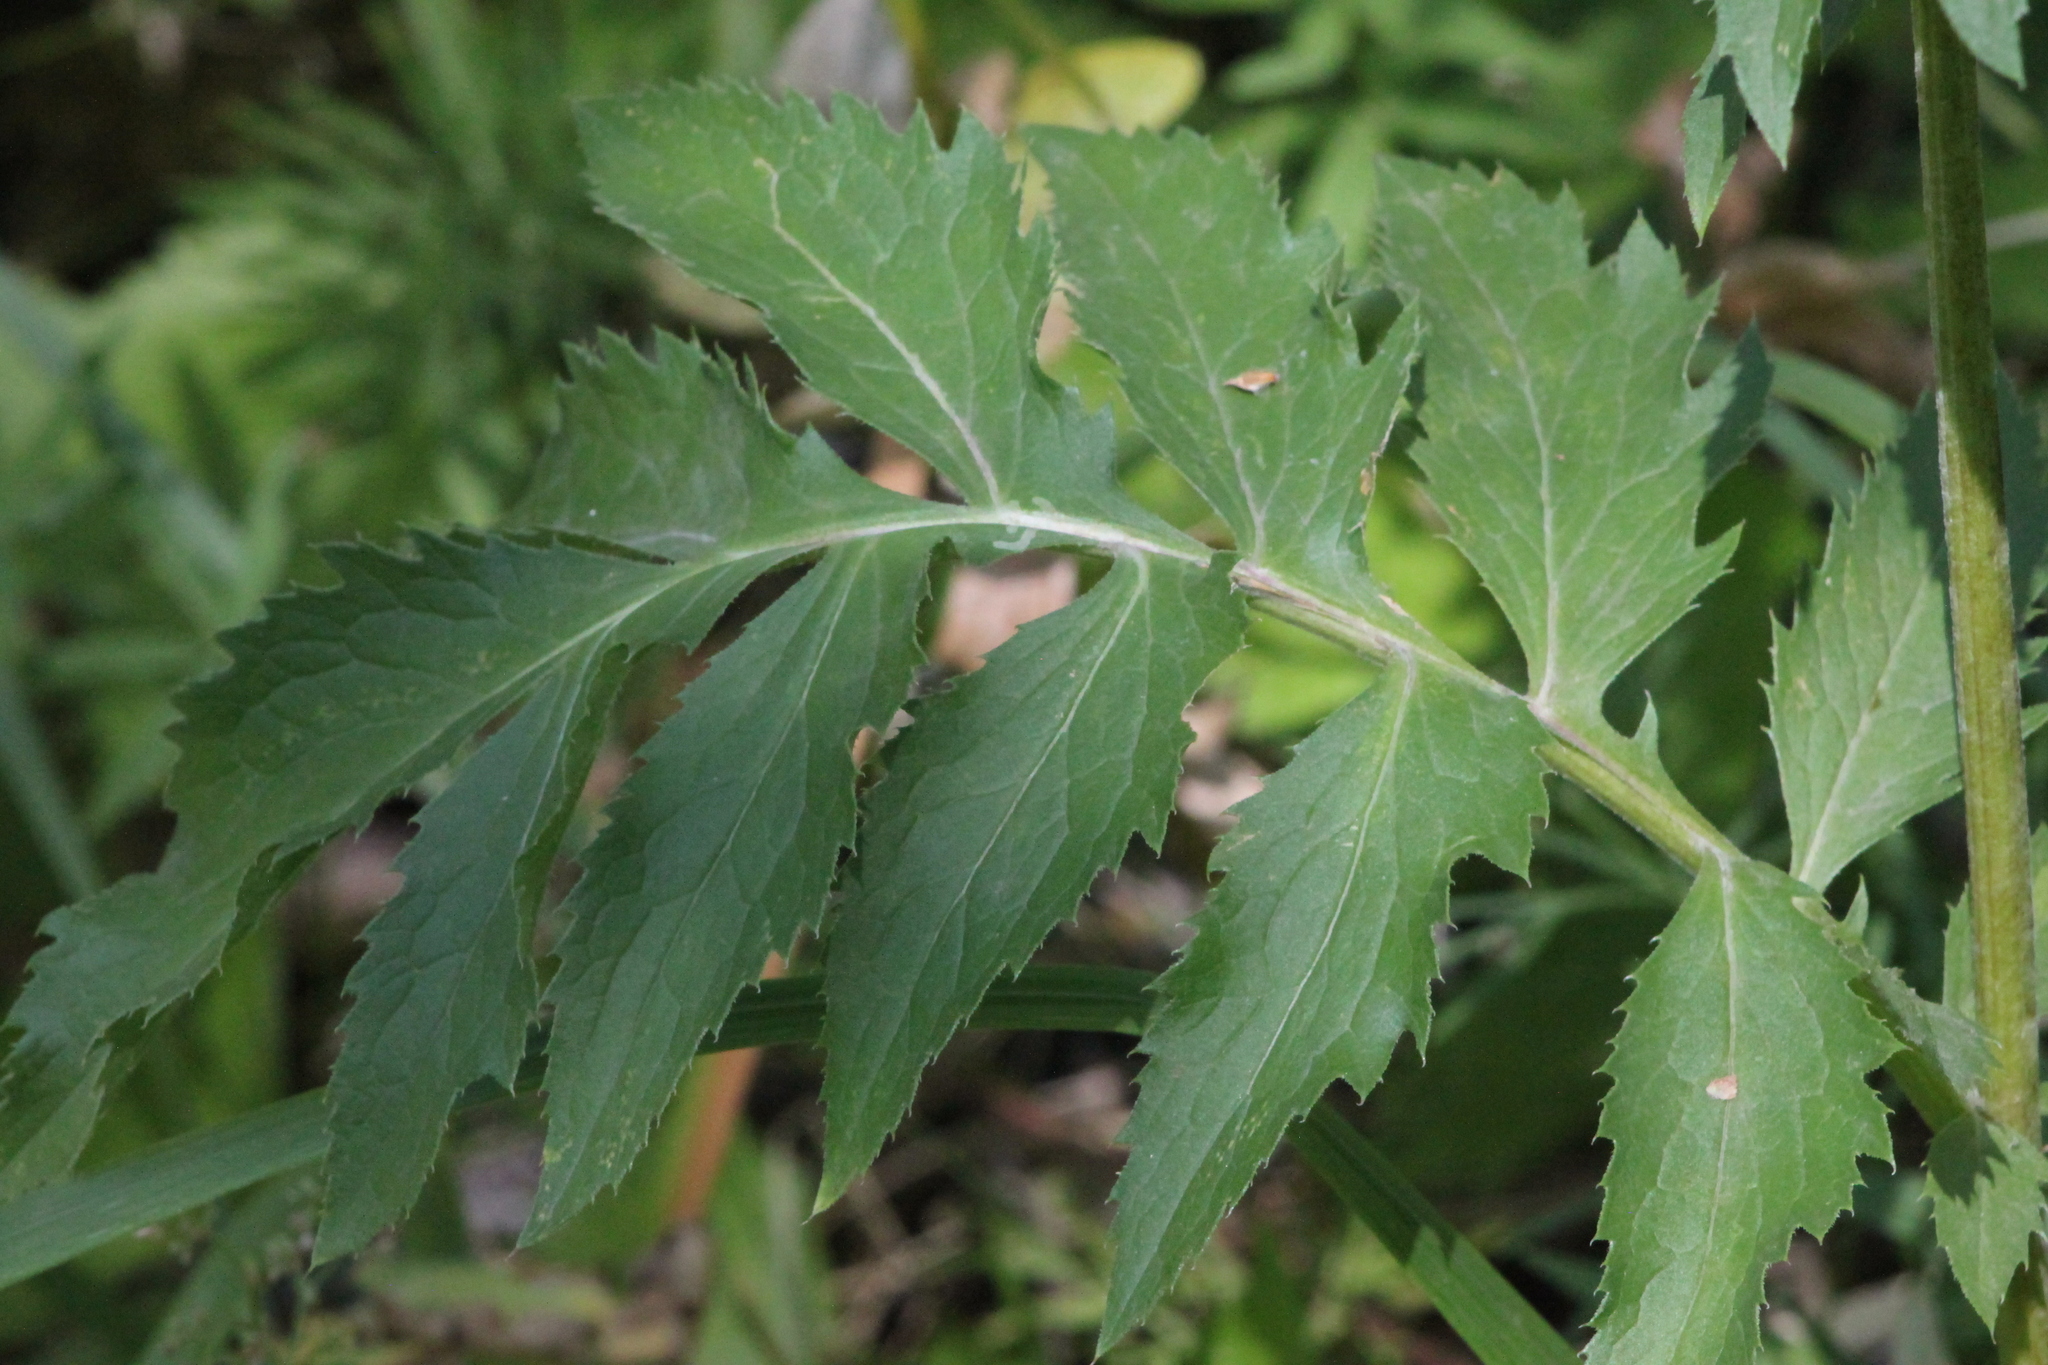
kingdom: Plantae
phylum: Tracheophyta
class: Magnoliopsida
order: Asterales
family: Asteraceae
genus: Serratula
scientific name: Serratula coronata
